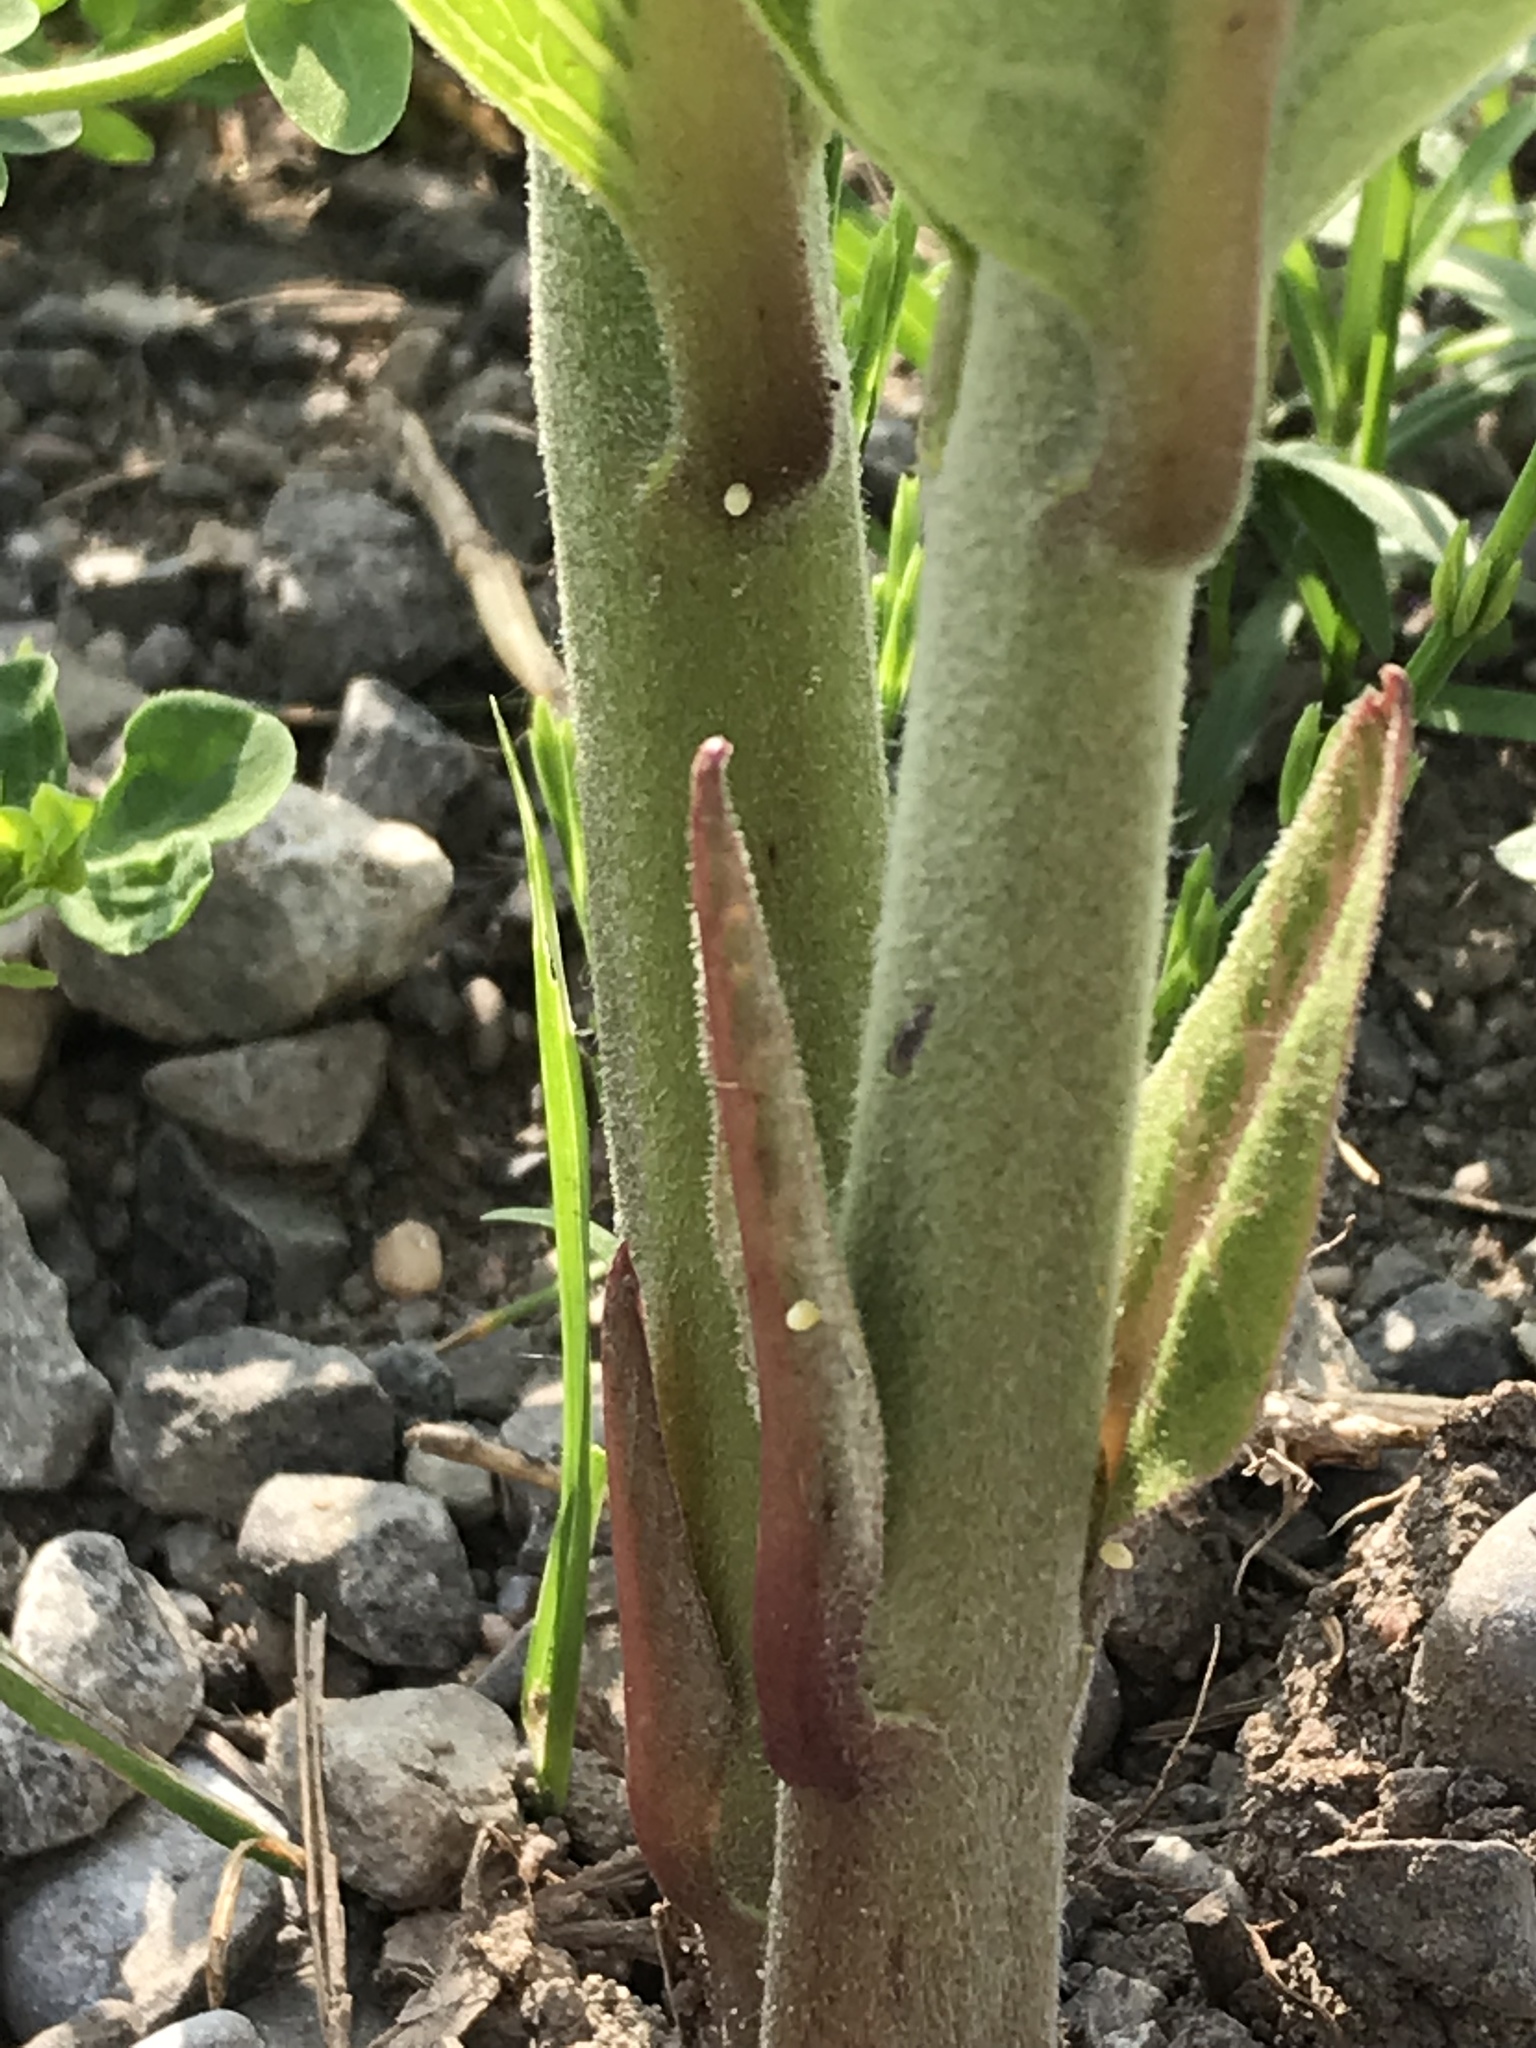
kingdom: Animalia
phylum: Arthropoda
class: Insecta
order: Lepidoptera
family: Nymphalidae
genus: Danaus
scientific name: Danaus plexippus
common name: Monarch
